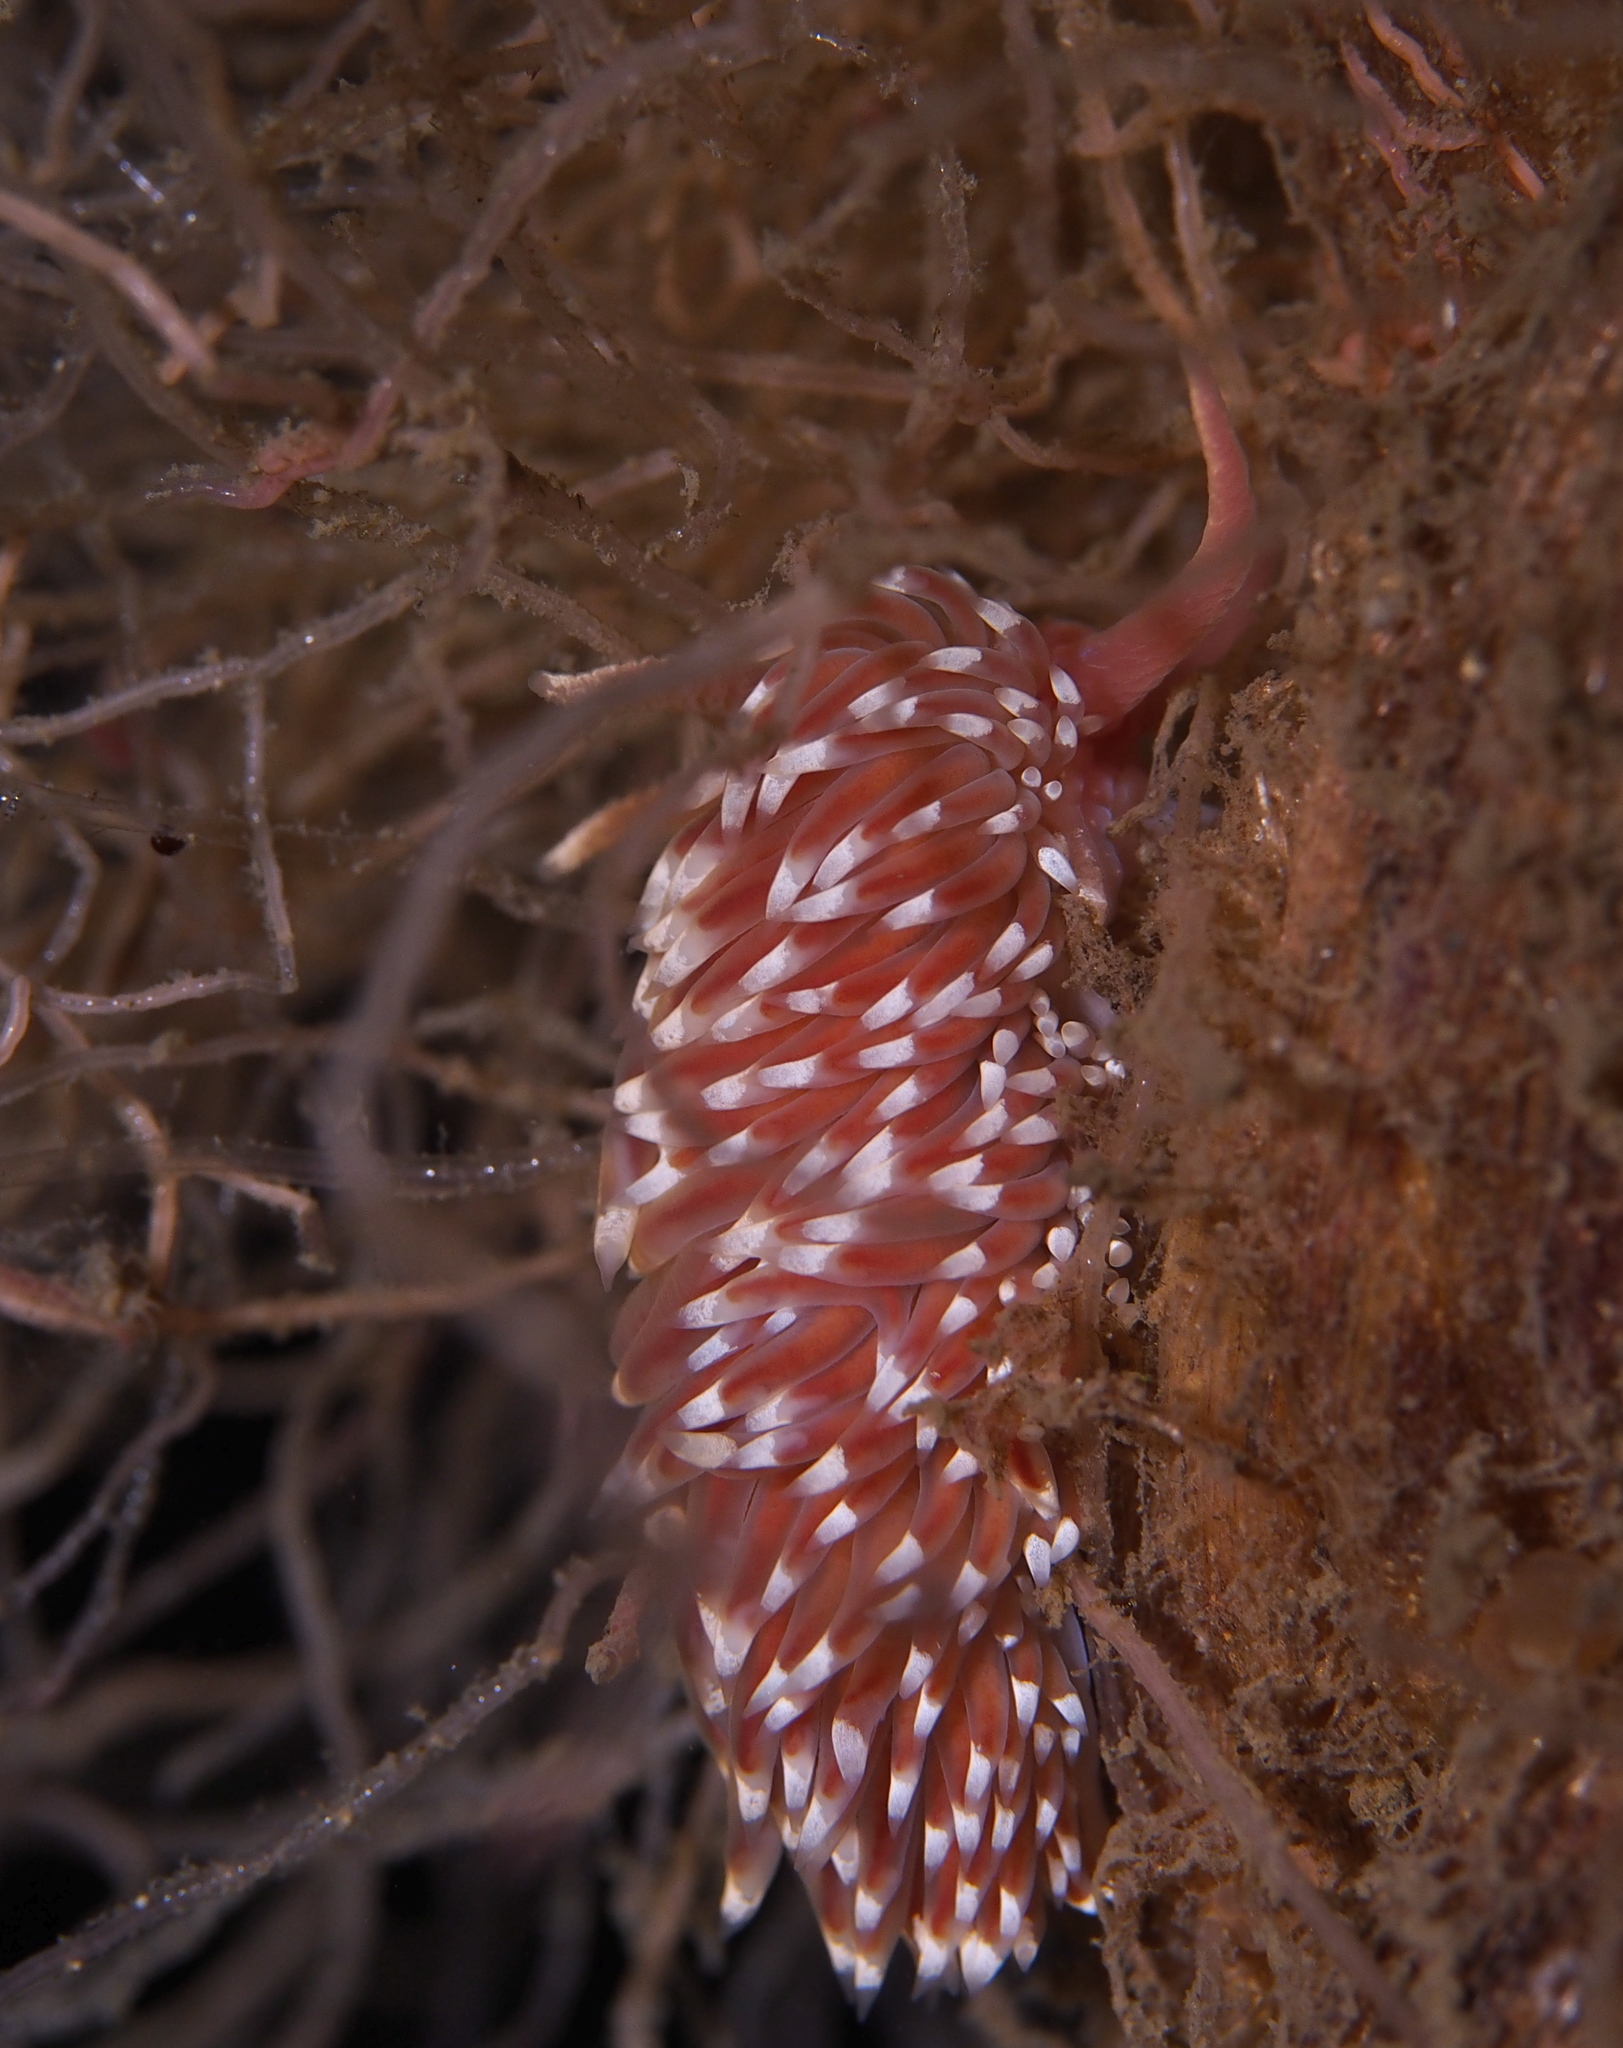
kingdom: Animalia
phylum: Mollusca
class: Gastropoda
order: Nudibranchia
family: Facelinidae
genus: Facelina
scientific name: Facelina bostoniensis
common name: Boston facelina
